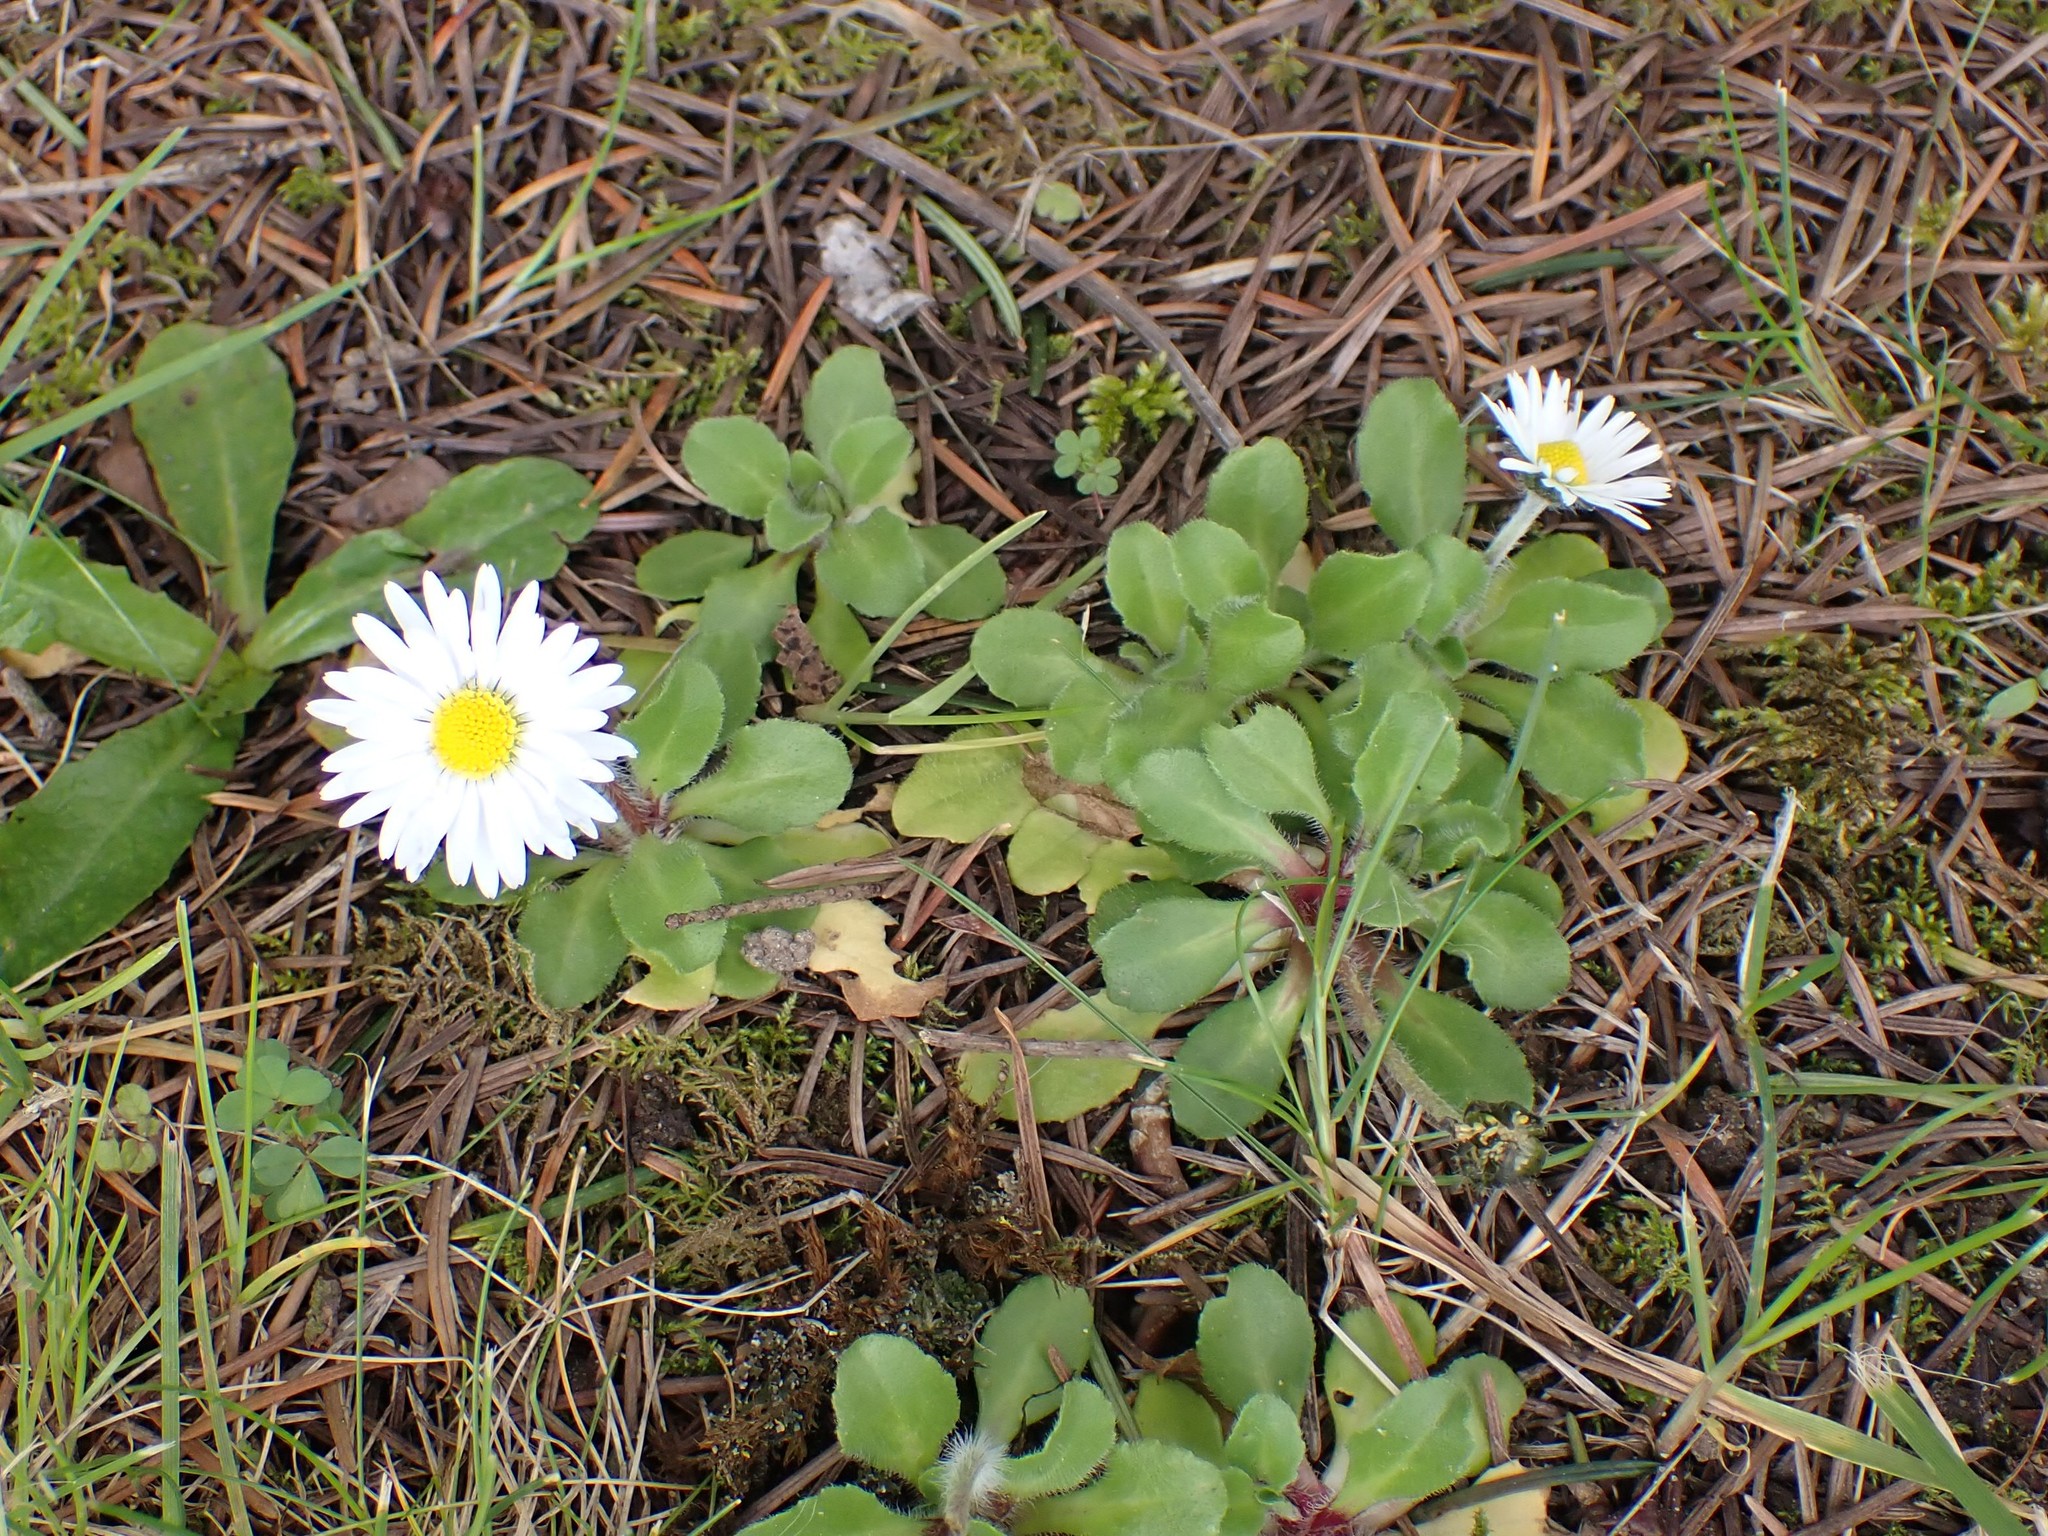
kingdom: Plantae
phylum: Tracheophyta
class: Magnoliopsida
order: Asterales
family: Asteraceae
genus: Bellis
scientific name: Bellis perennis
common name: Lawndaisy
